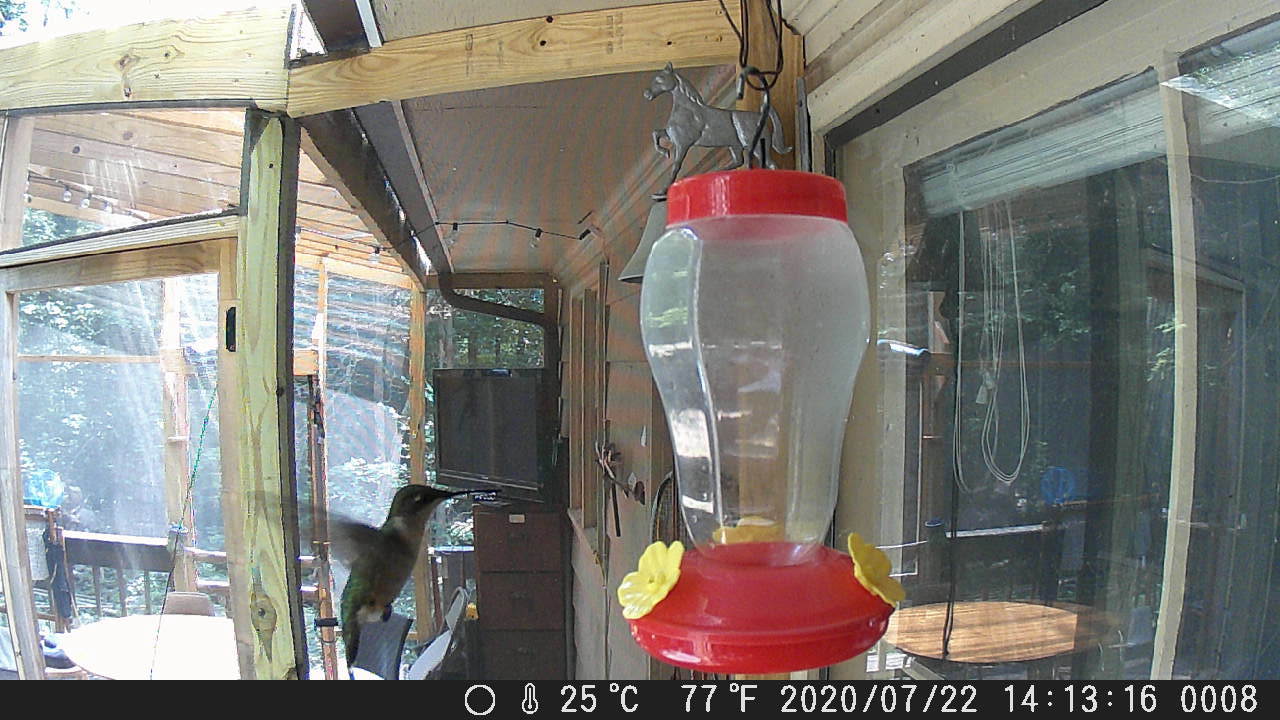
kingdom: Animalia
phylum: Chordata
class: Aves
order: Apodiformes
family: Trochilidae
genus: Archilochus
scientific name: Archilochus colubris
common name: Ruby-throated hummingbird
